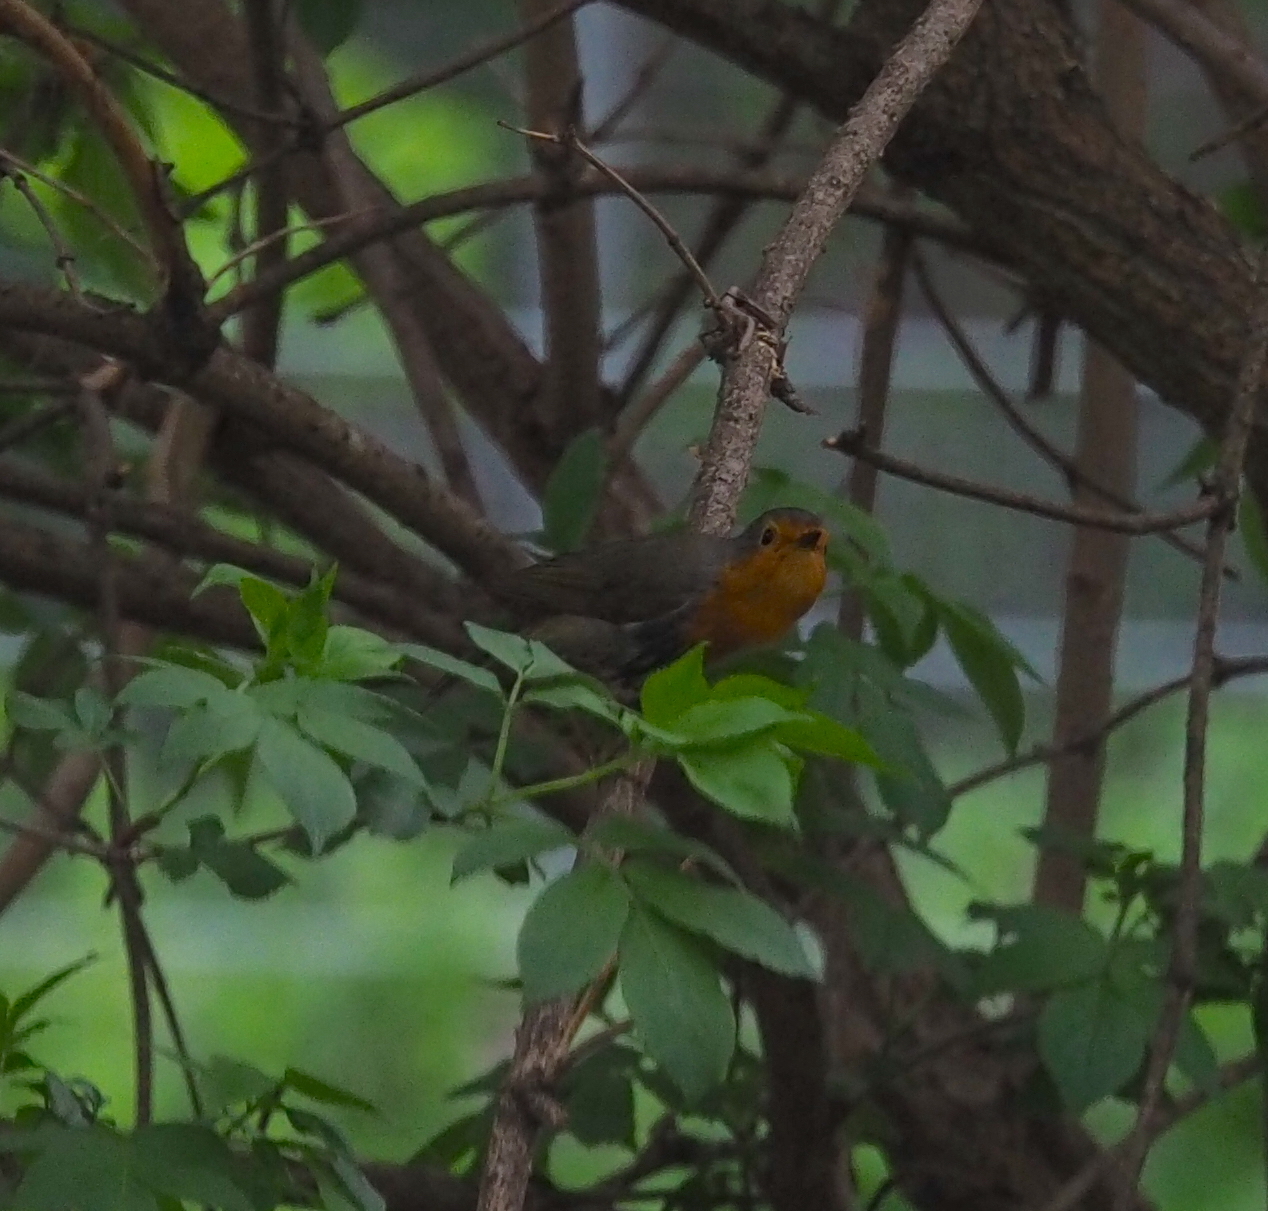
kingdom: Animalia
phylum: Chordata
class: Aves
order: Passeriformes
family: Muscicapidae
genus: Erithacus
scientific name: Erithacus rubecula
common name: European robin
